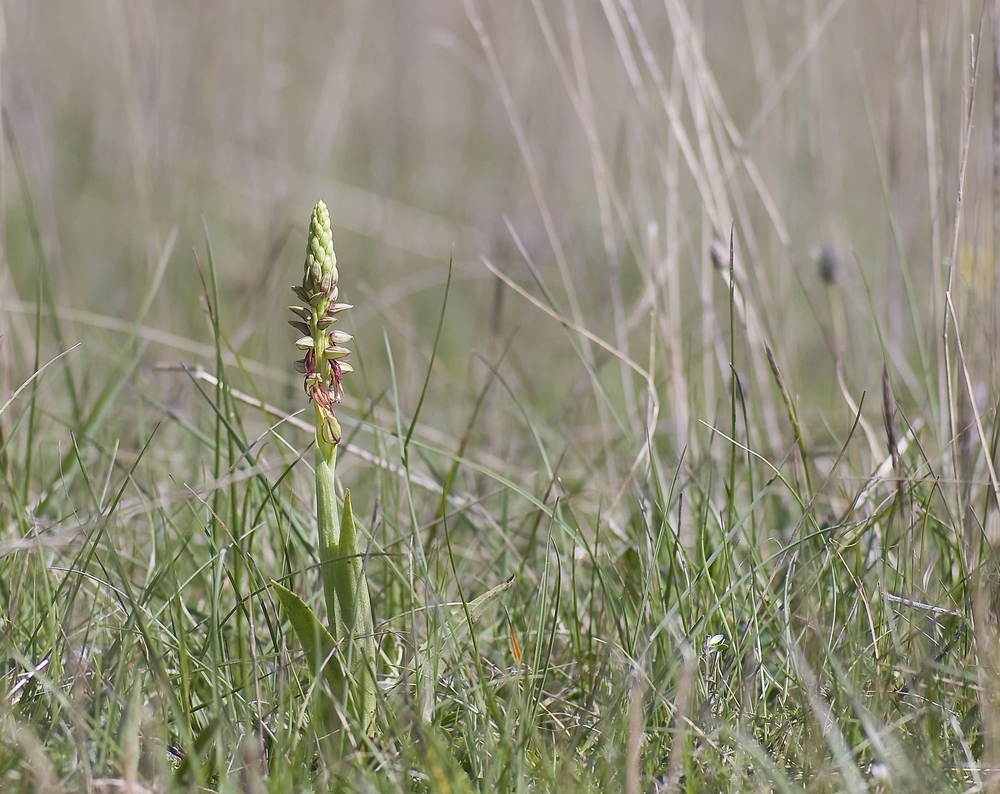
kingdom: Plantae
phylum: Tracheophyta
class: Liliopsida
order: Asparagales
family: Orchidaceae
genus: Orchis
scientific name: Orchis anthropophora
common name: Man orchid
